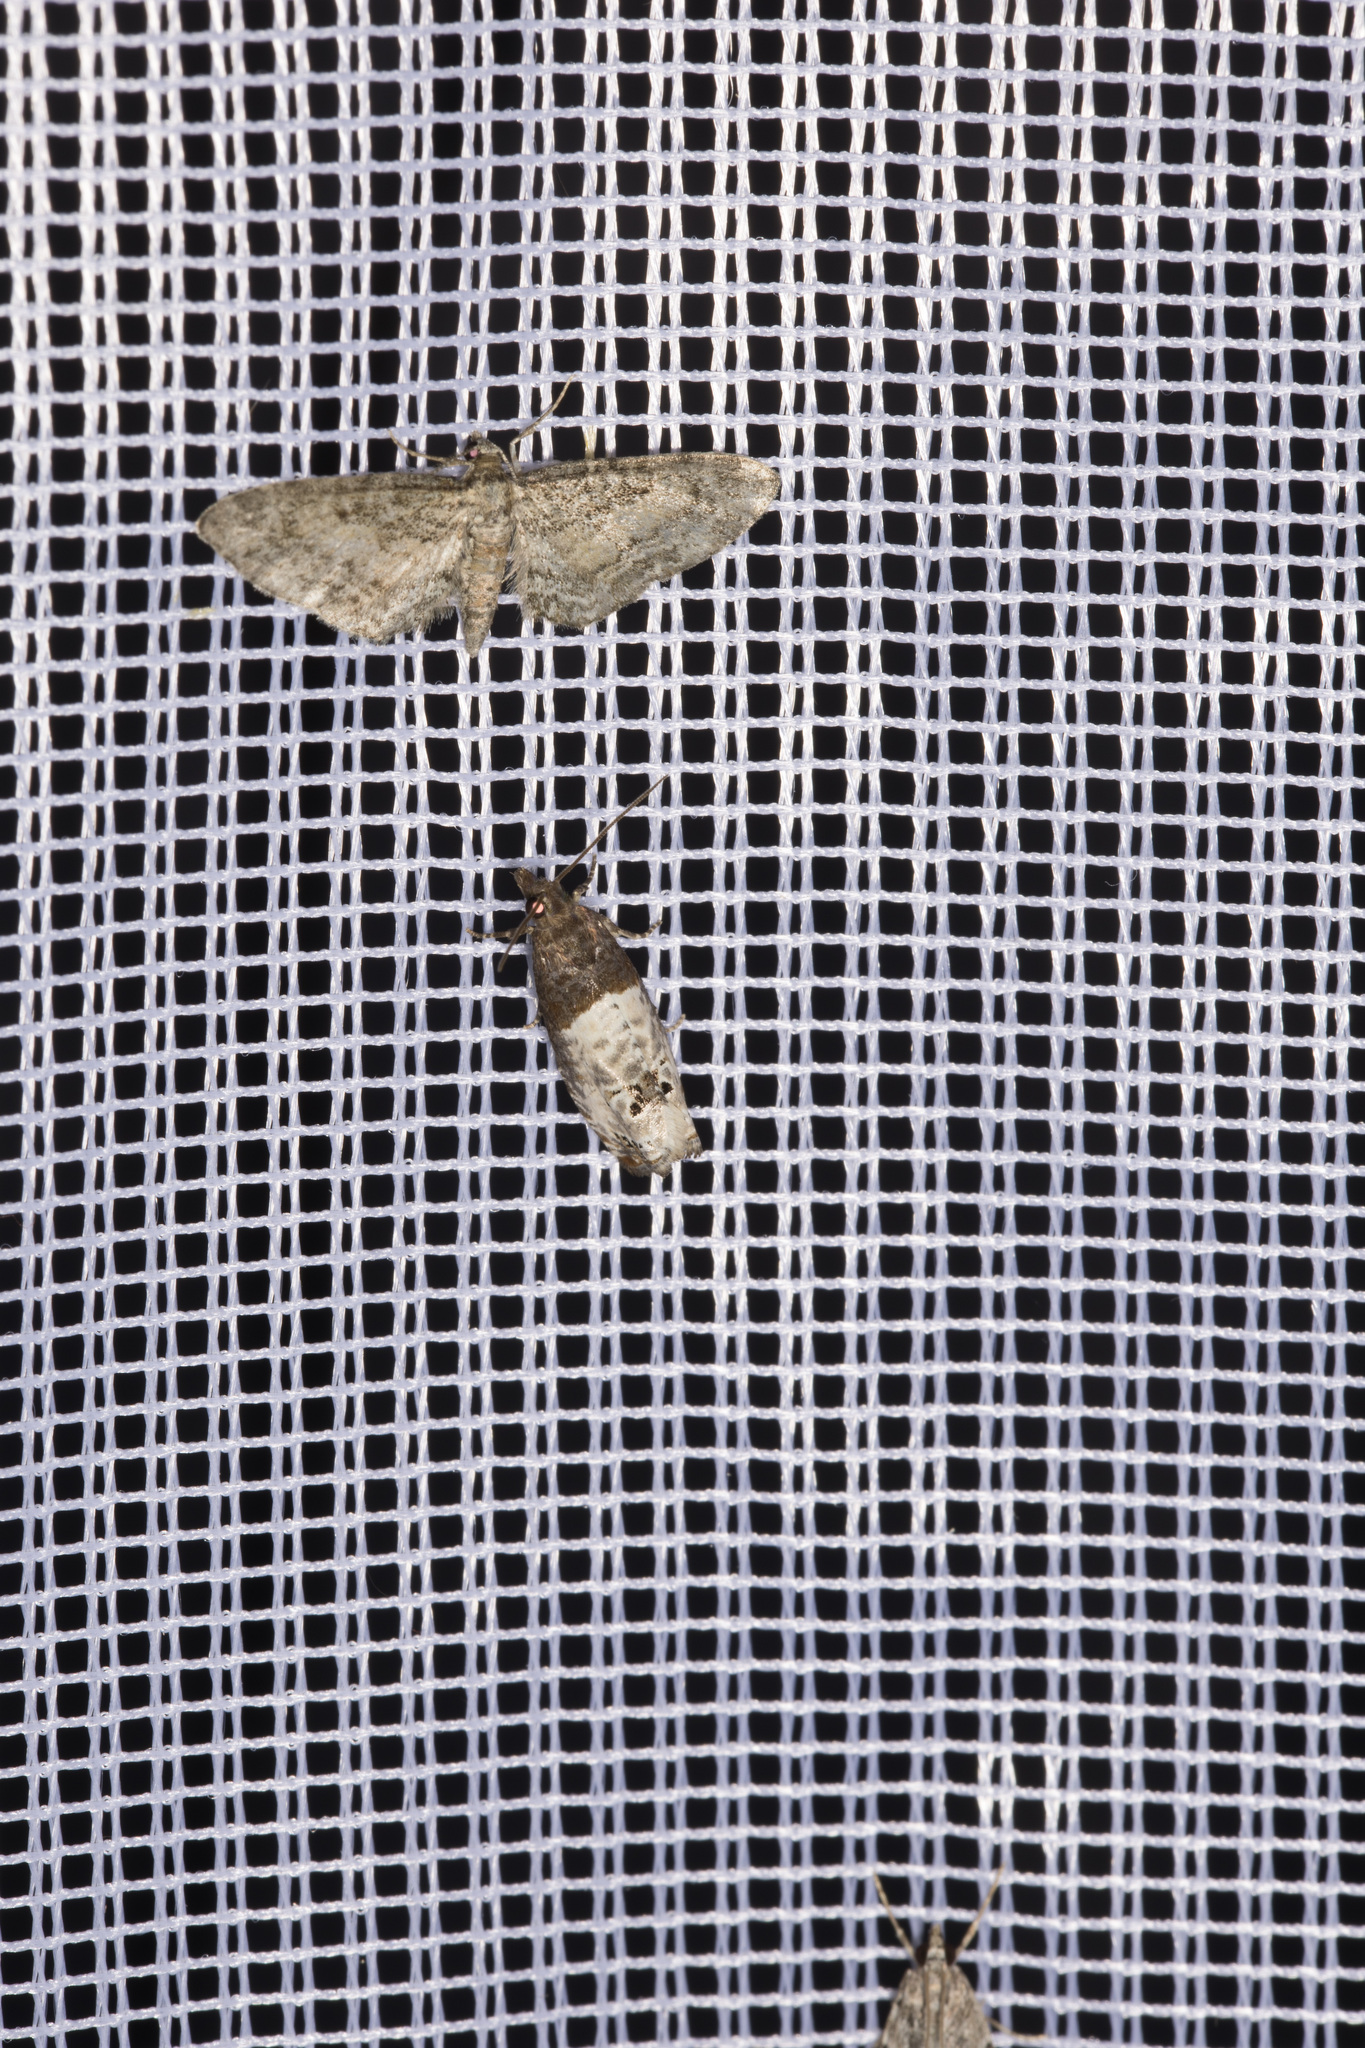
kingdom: Animalia
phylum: Arthropoda
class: Insecta
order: Lepidoptera
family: Geometridae
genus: Eupithecia
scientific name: Eupithecia inturbata
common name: Maple pug
